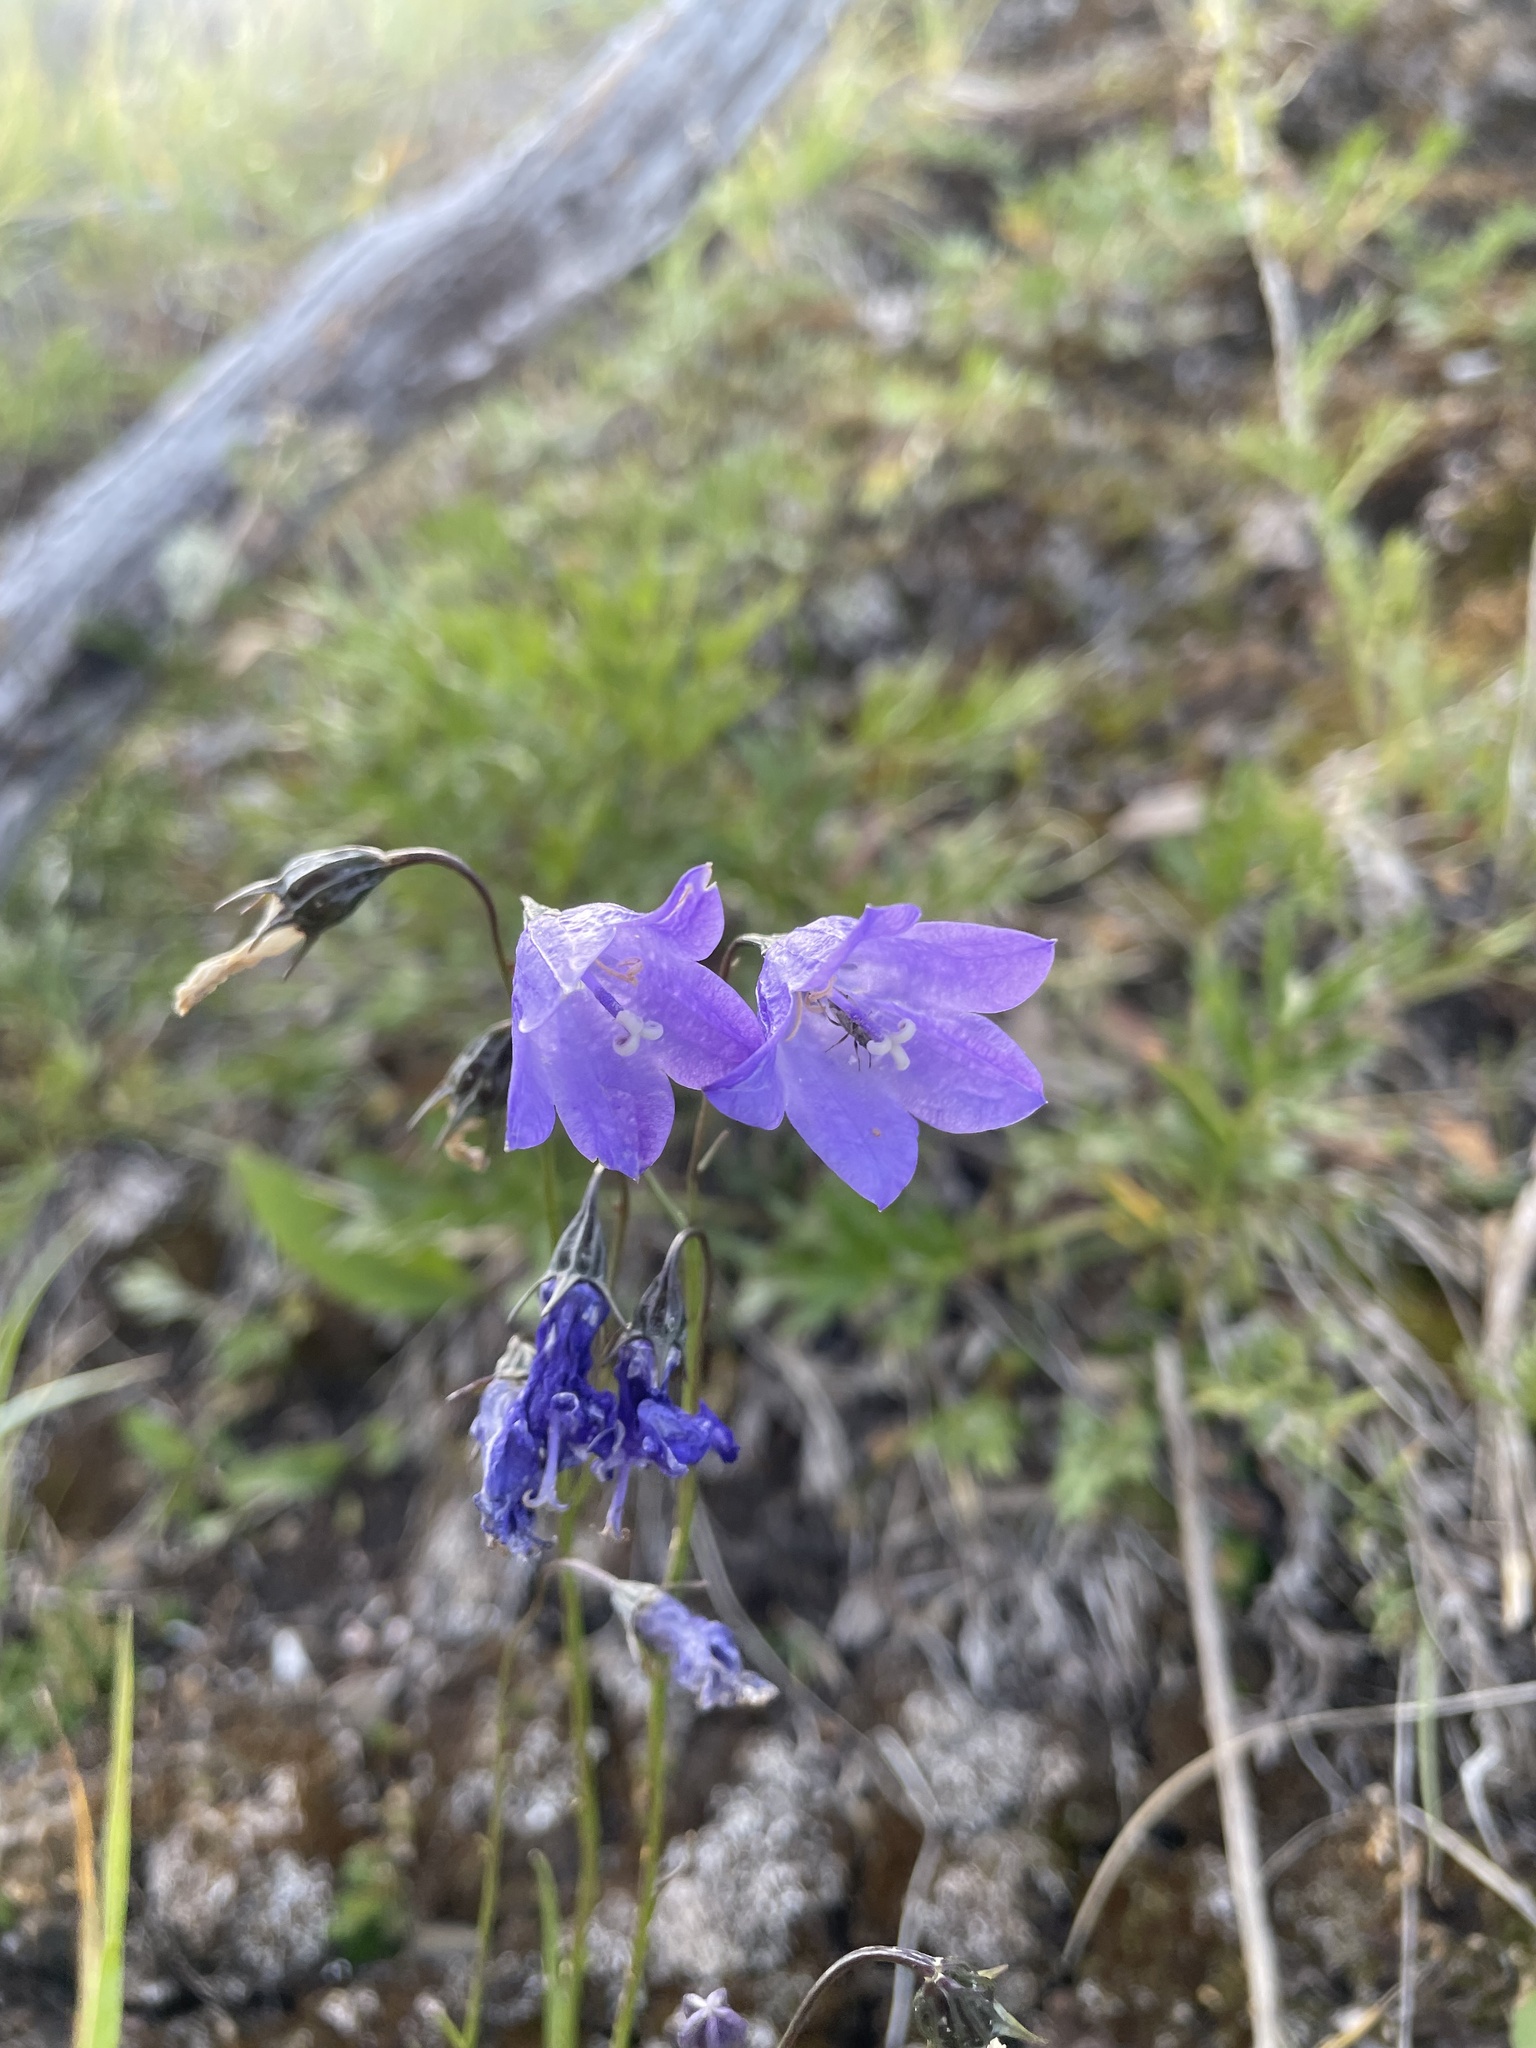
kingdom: Plantae
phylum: Tracheophyta
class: Magnoliopsida
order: Asterales
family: Campanulaceae
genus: Campanula
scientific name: Campanula alaskana
